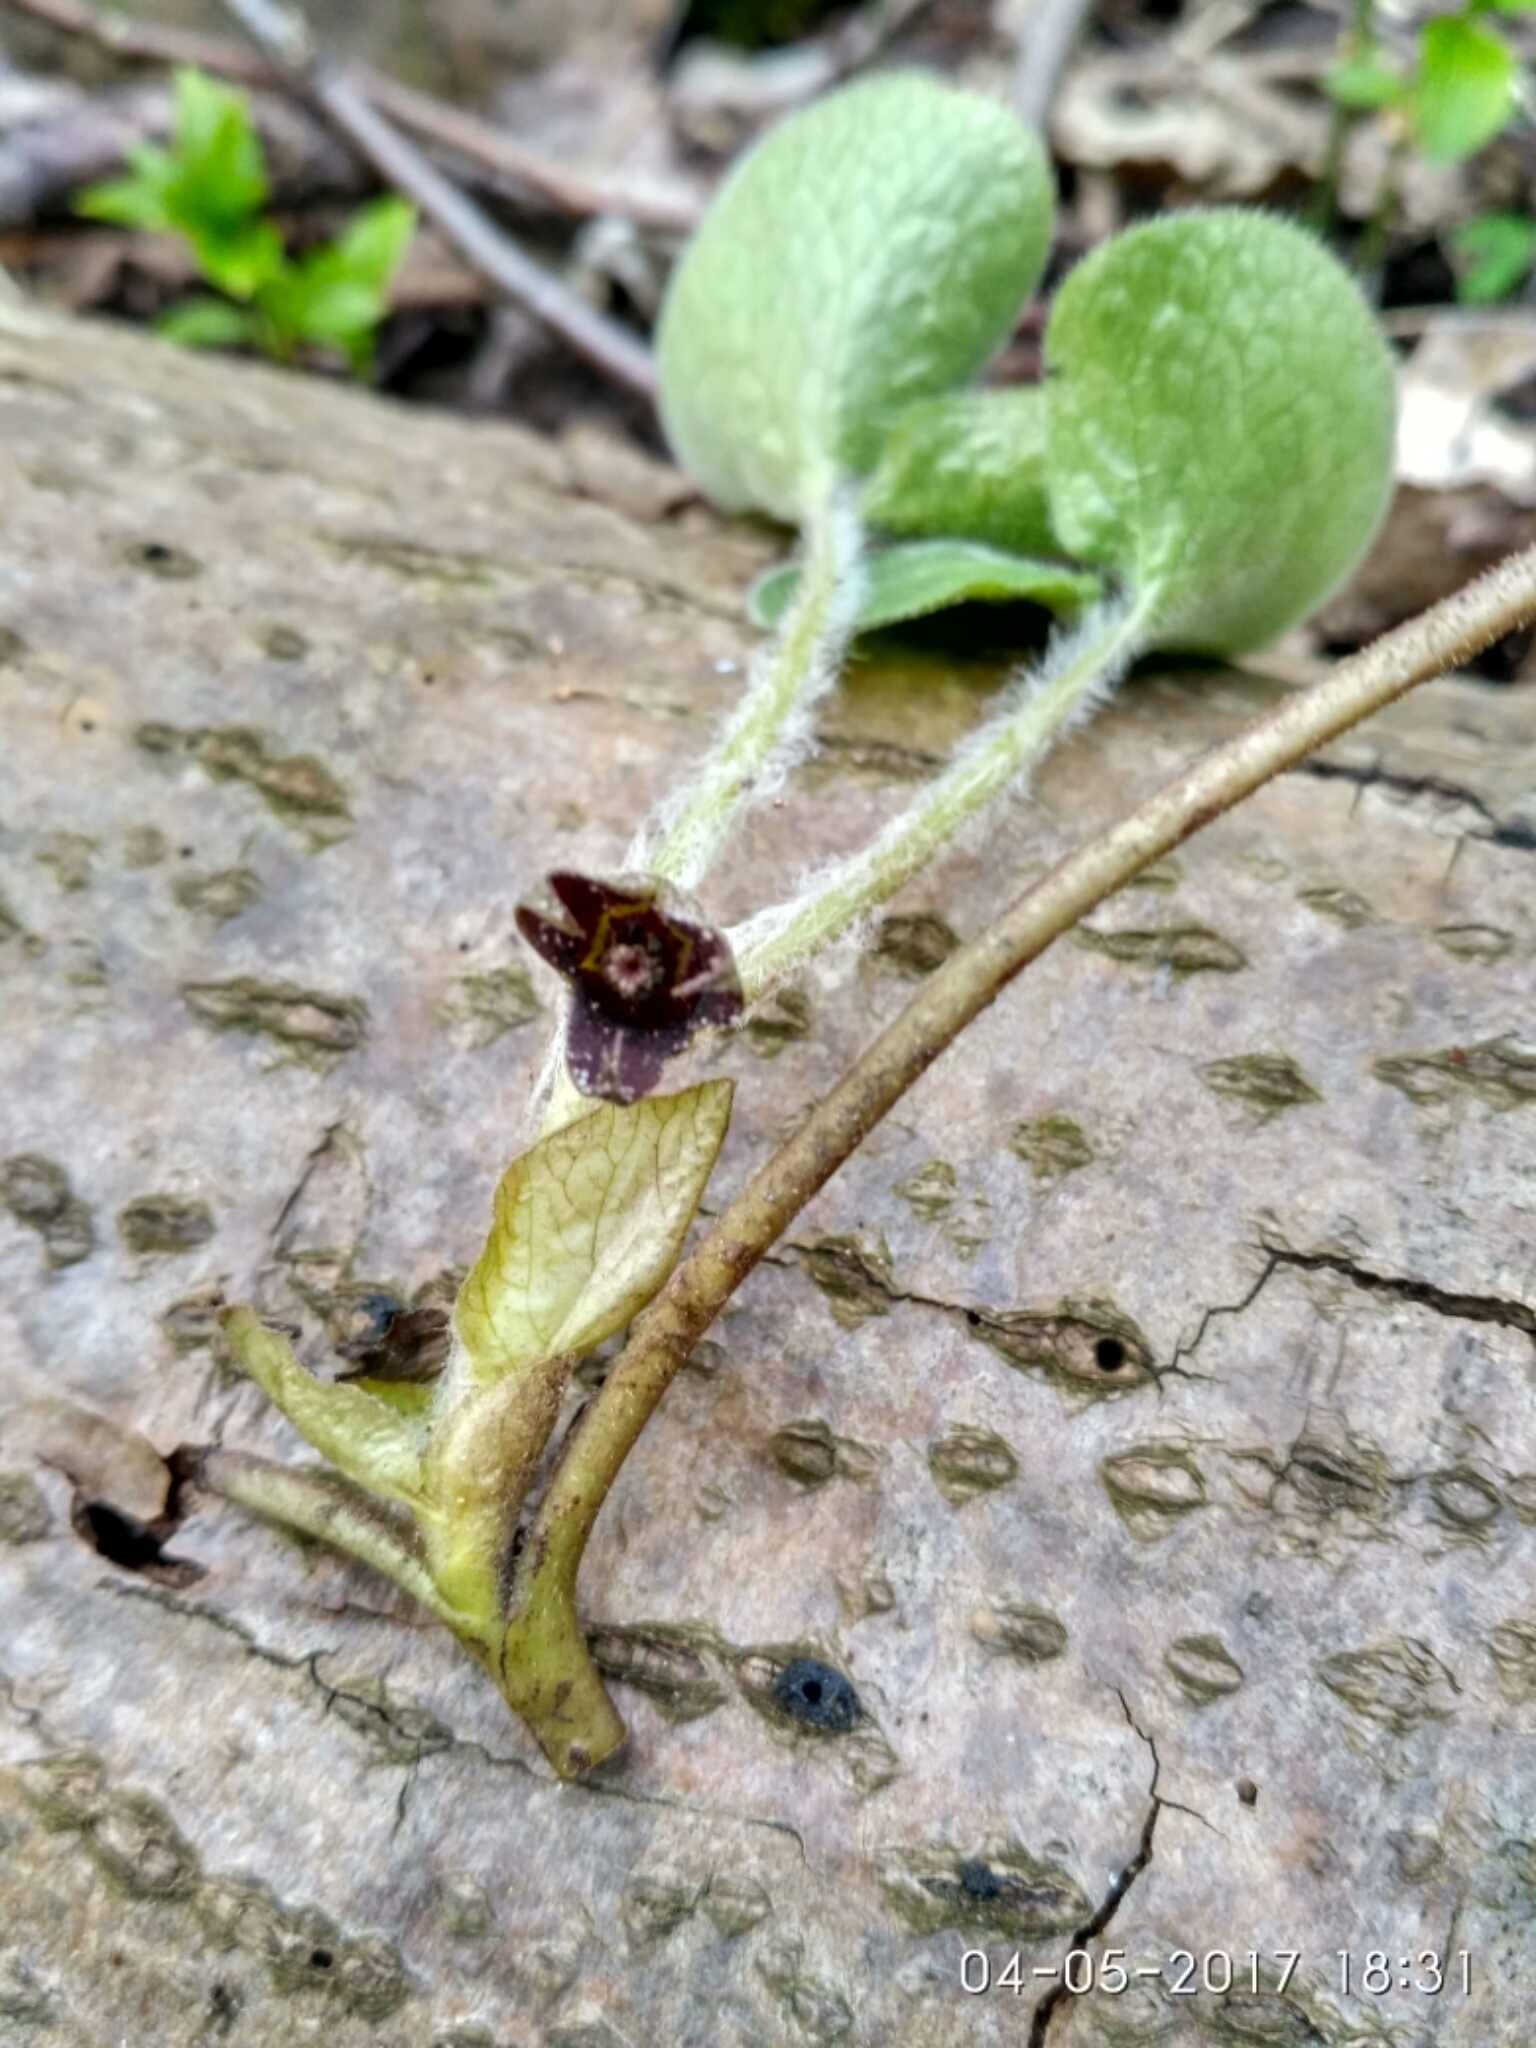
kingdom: Plantae
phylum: Tracheophyta
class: Magnoliopsida
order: Piperales
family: Aristolochiaceae
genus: Asarum
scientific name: Asarum europaeum
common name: Asarabacca
